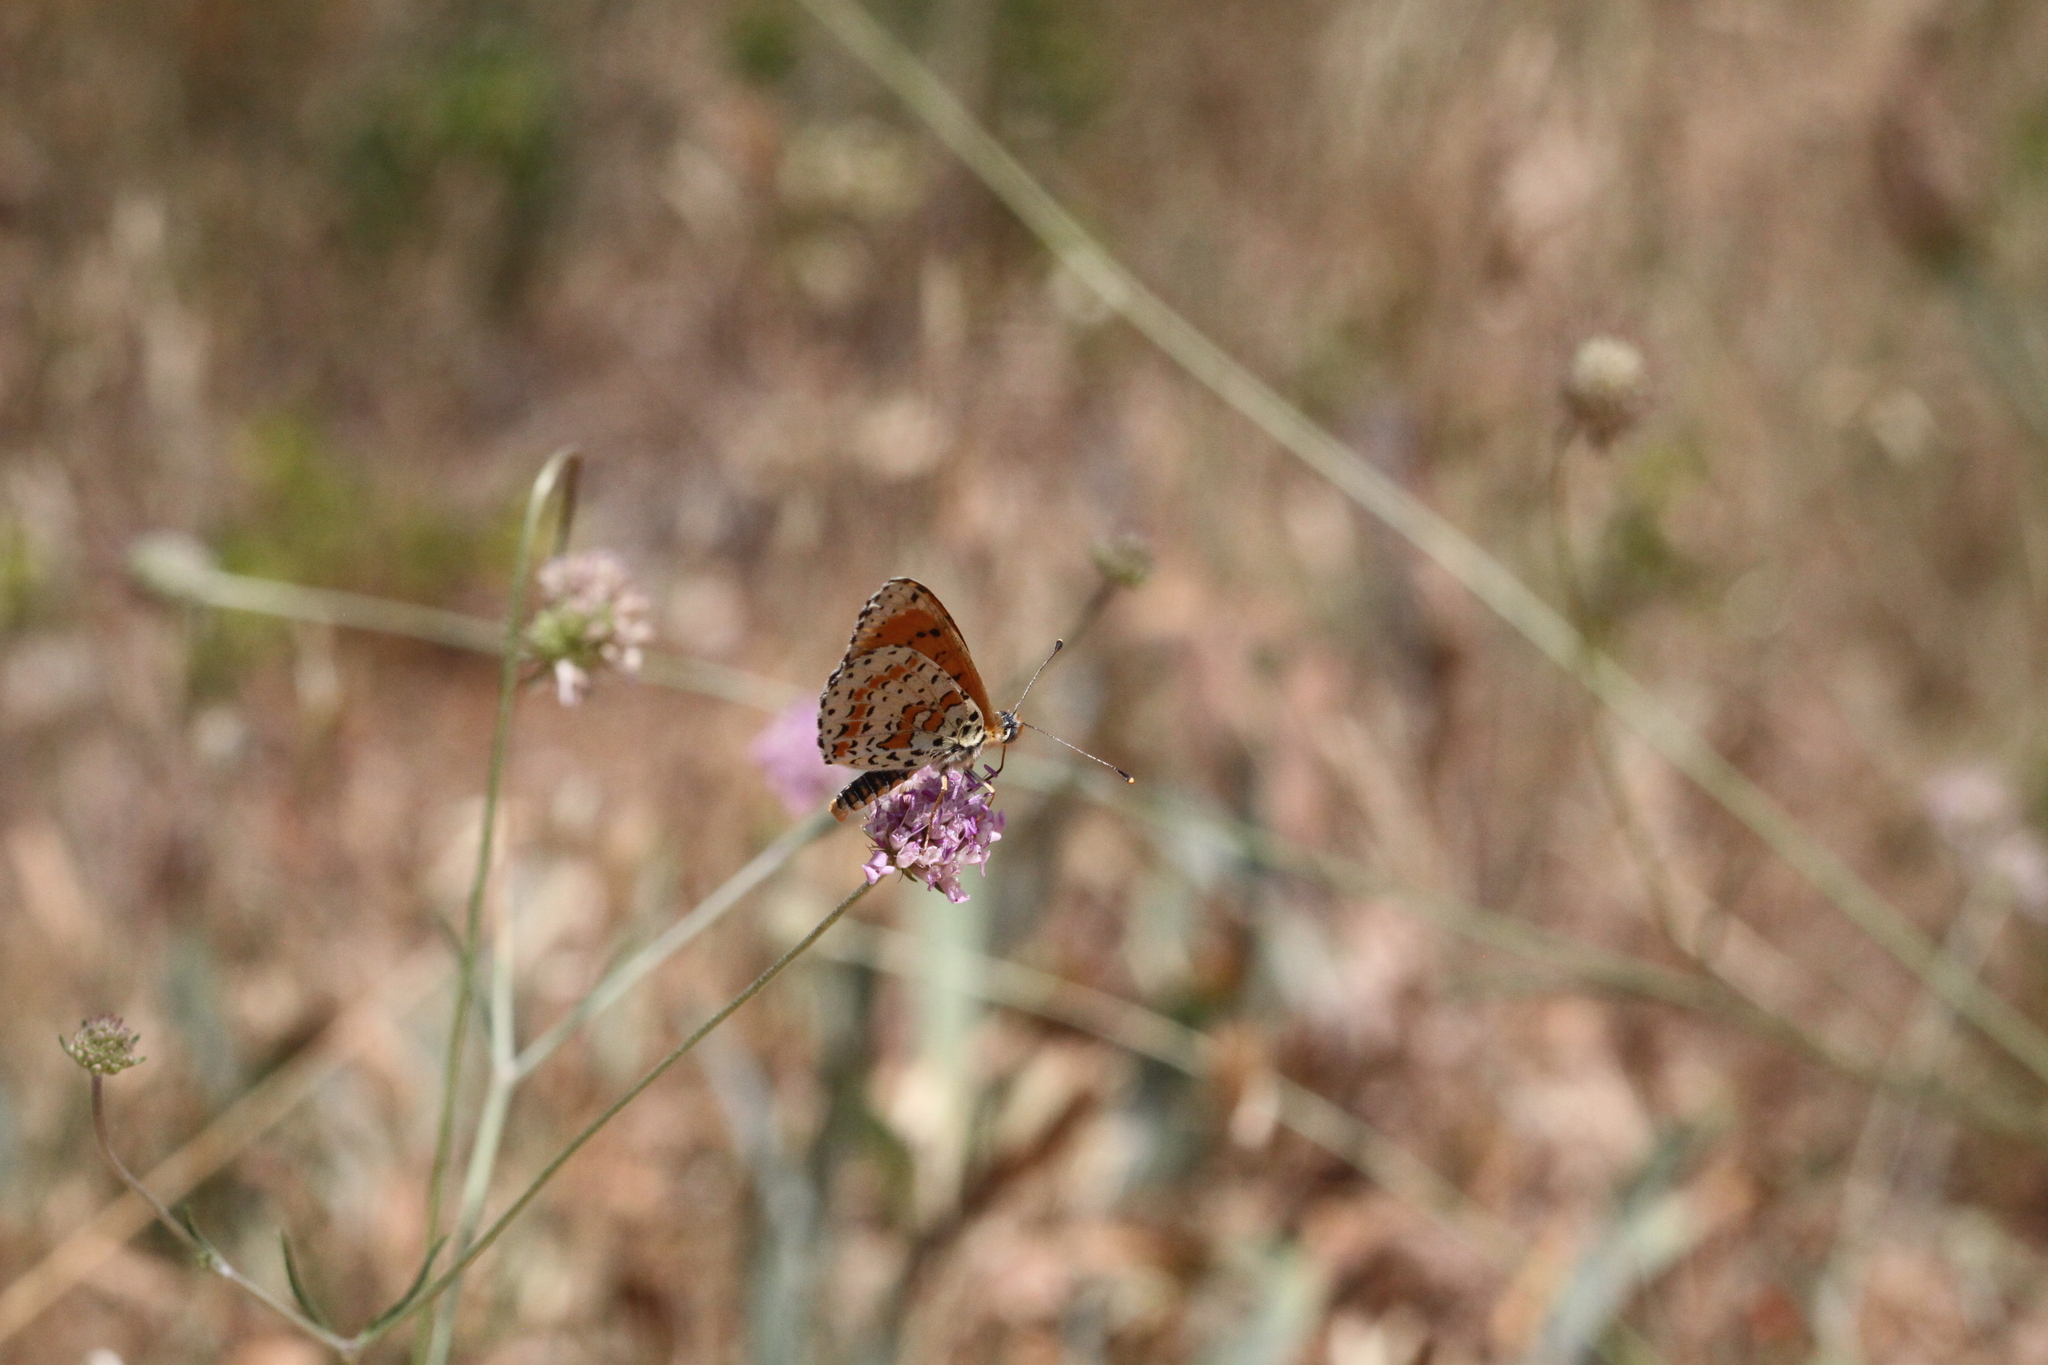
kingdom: Animalia
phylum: Arthropoda
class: Insecta
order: Lepidoptera
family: Nymphalidae
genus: Melitaea
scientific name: Melitaea didyma
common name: Spotted fritillary
